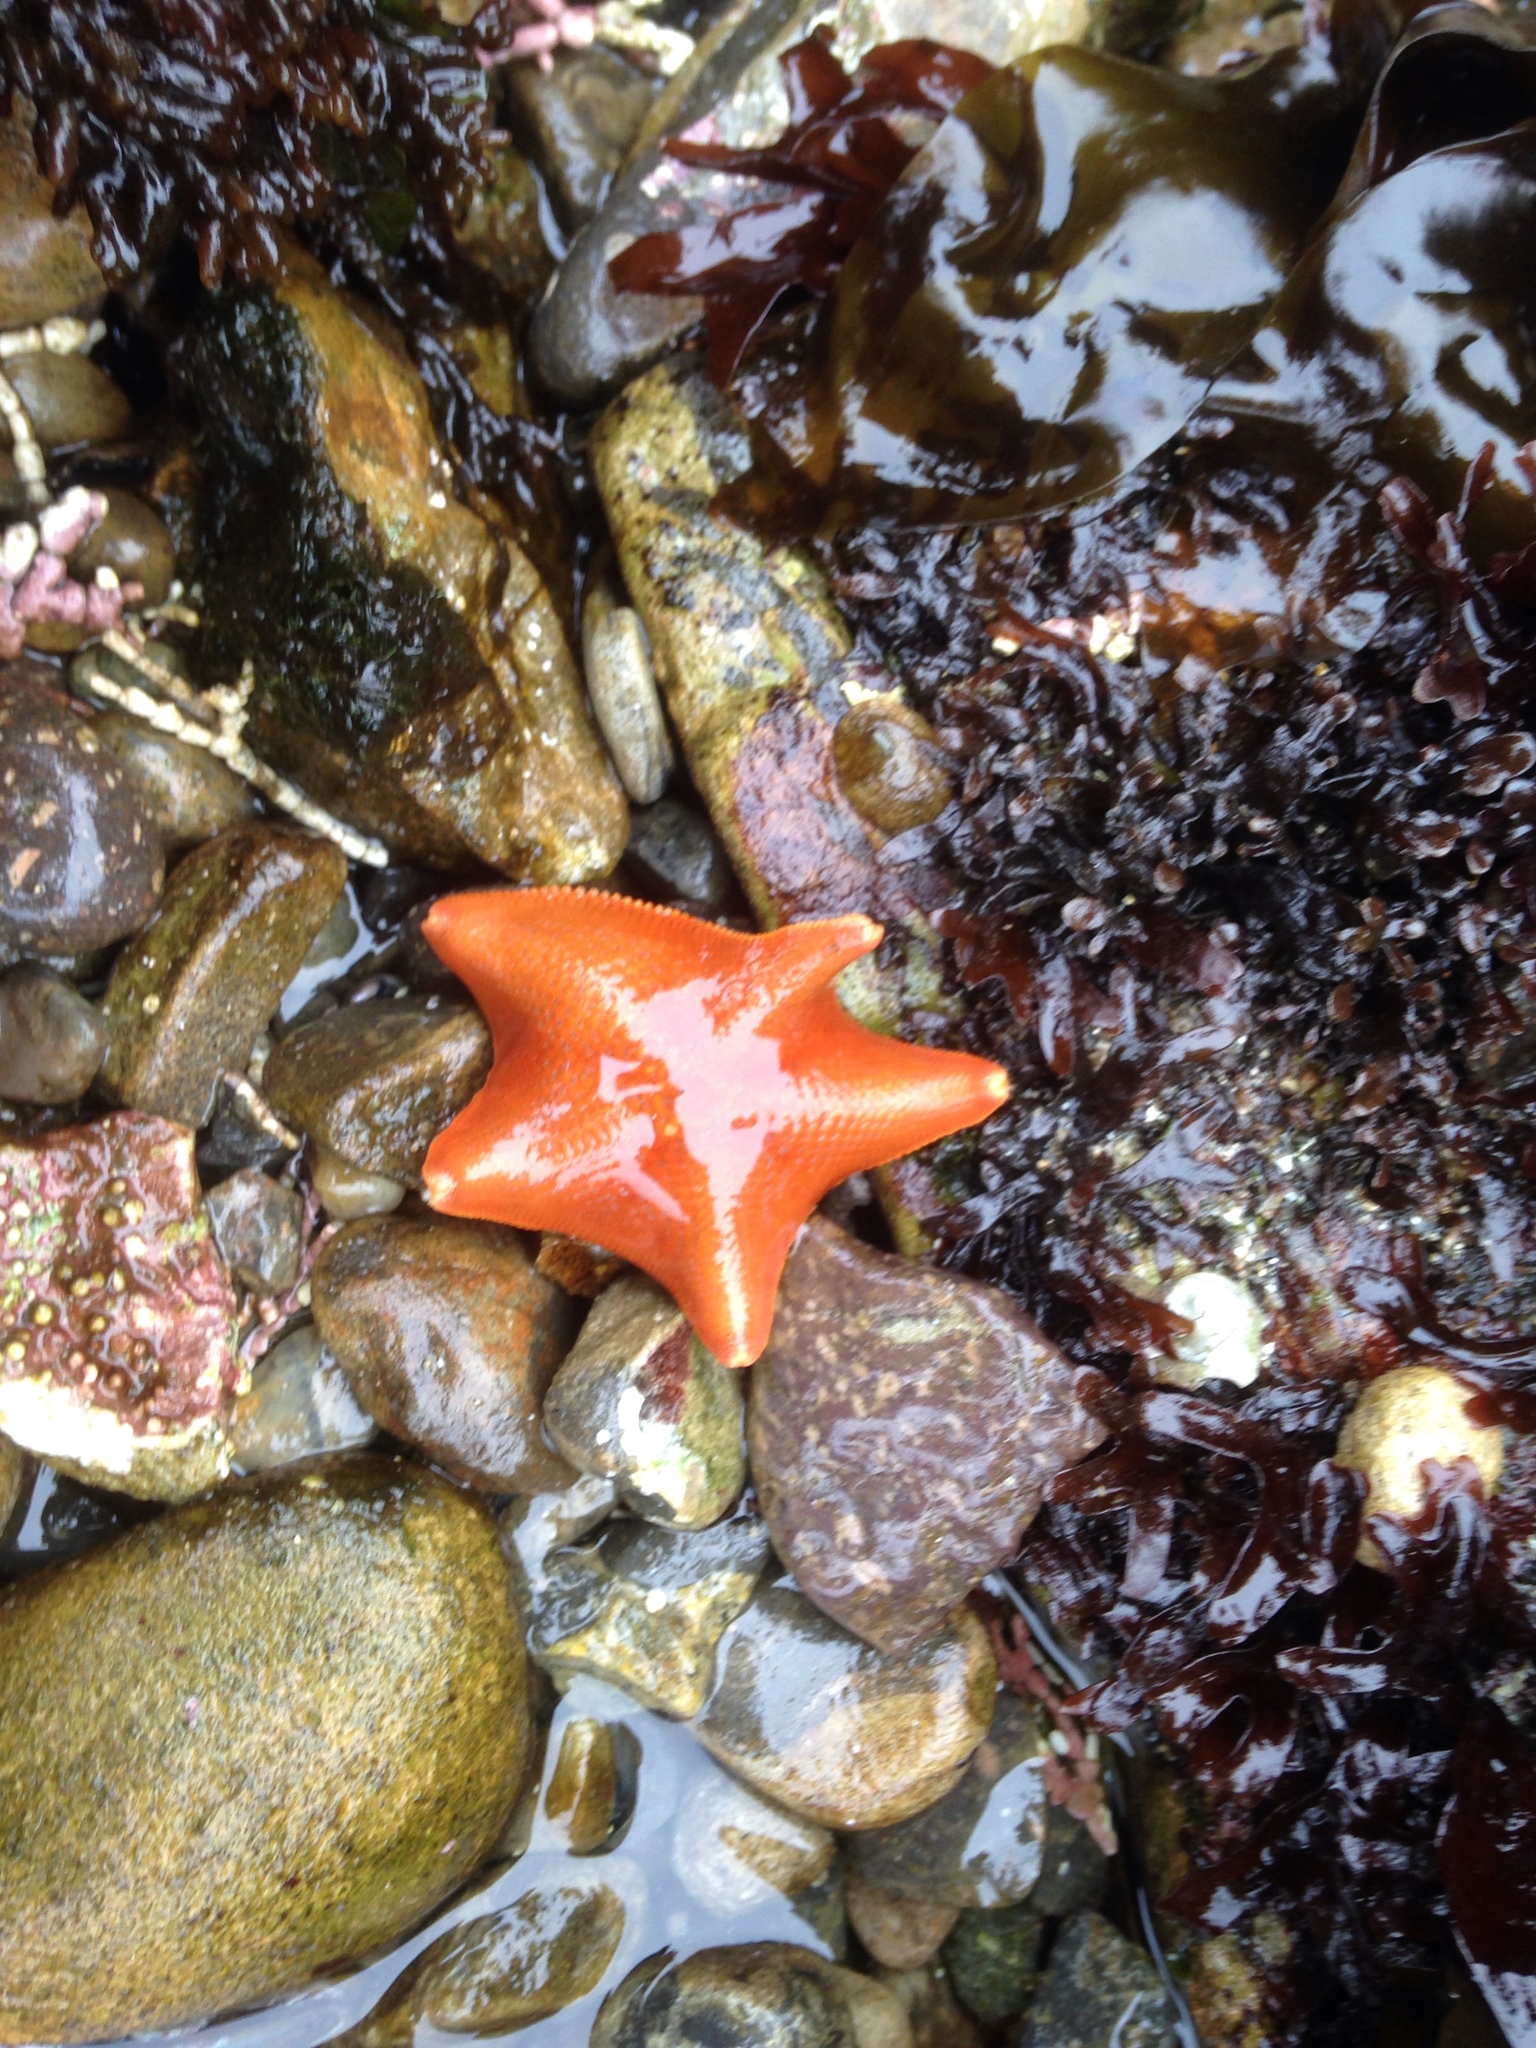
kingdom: Animalia
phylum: Echinodermata
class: Asteroidea
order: Valvatida
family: Asterinidae
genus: Patiria
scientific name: Patiria miniata
